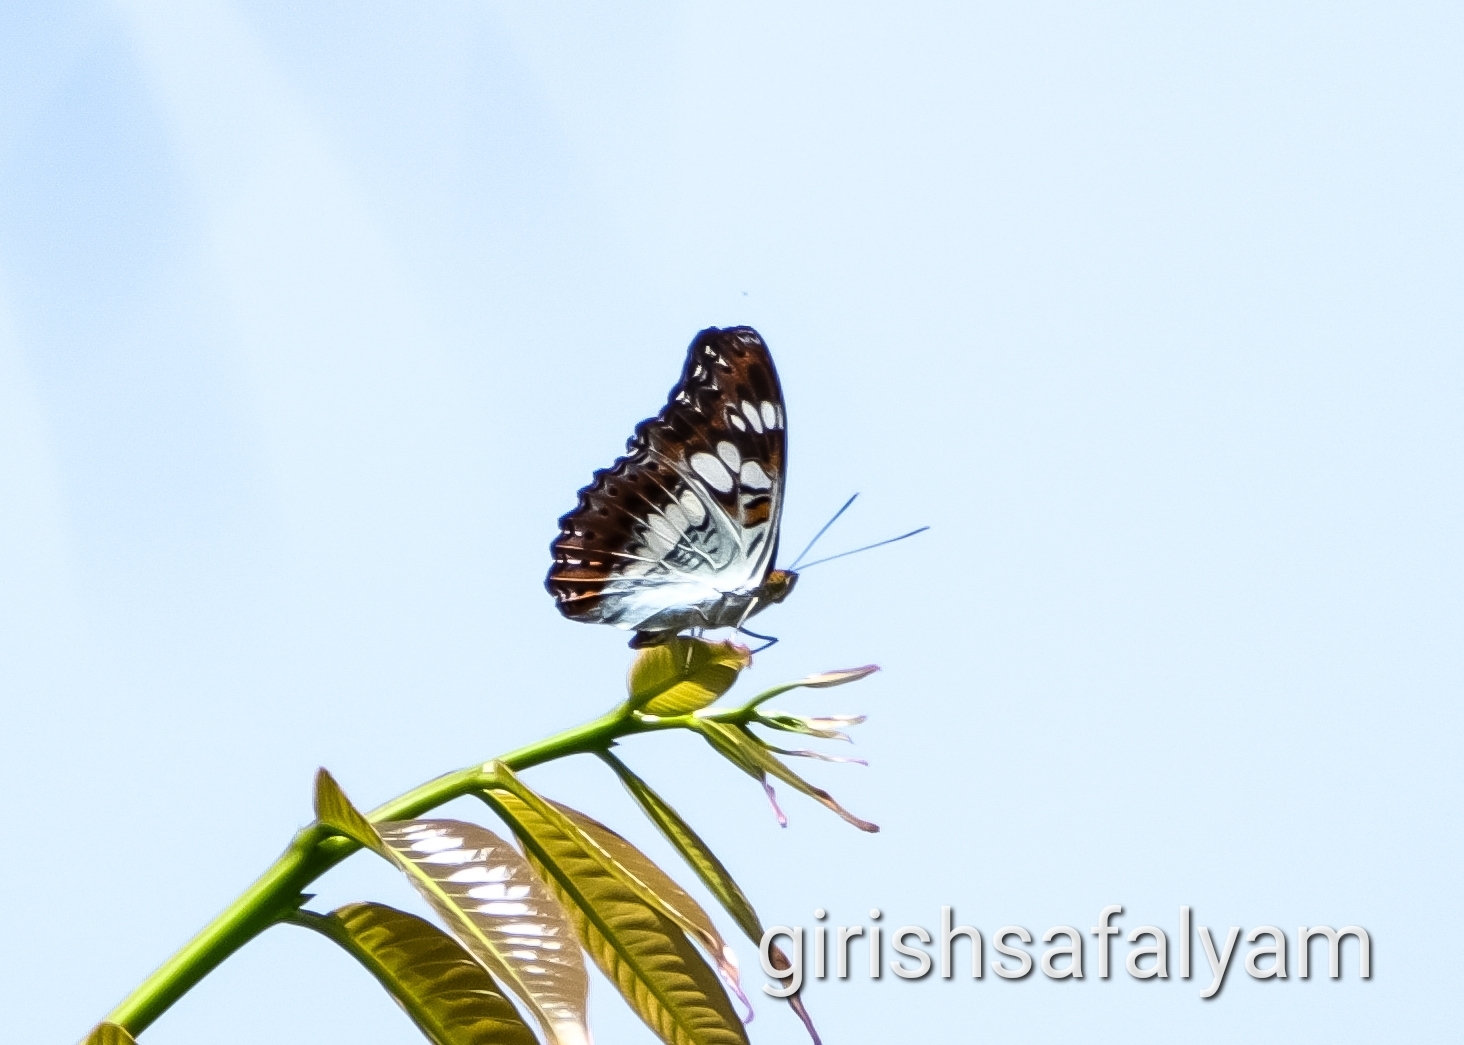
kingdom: Animalia
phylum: Arthropoda
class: Insecta
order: Lepidoptera
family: Nymphalidae
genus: Limenitis
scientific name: Limenitis Moduza procris
